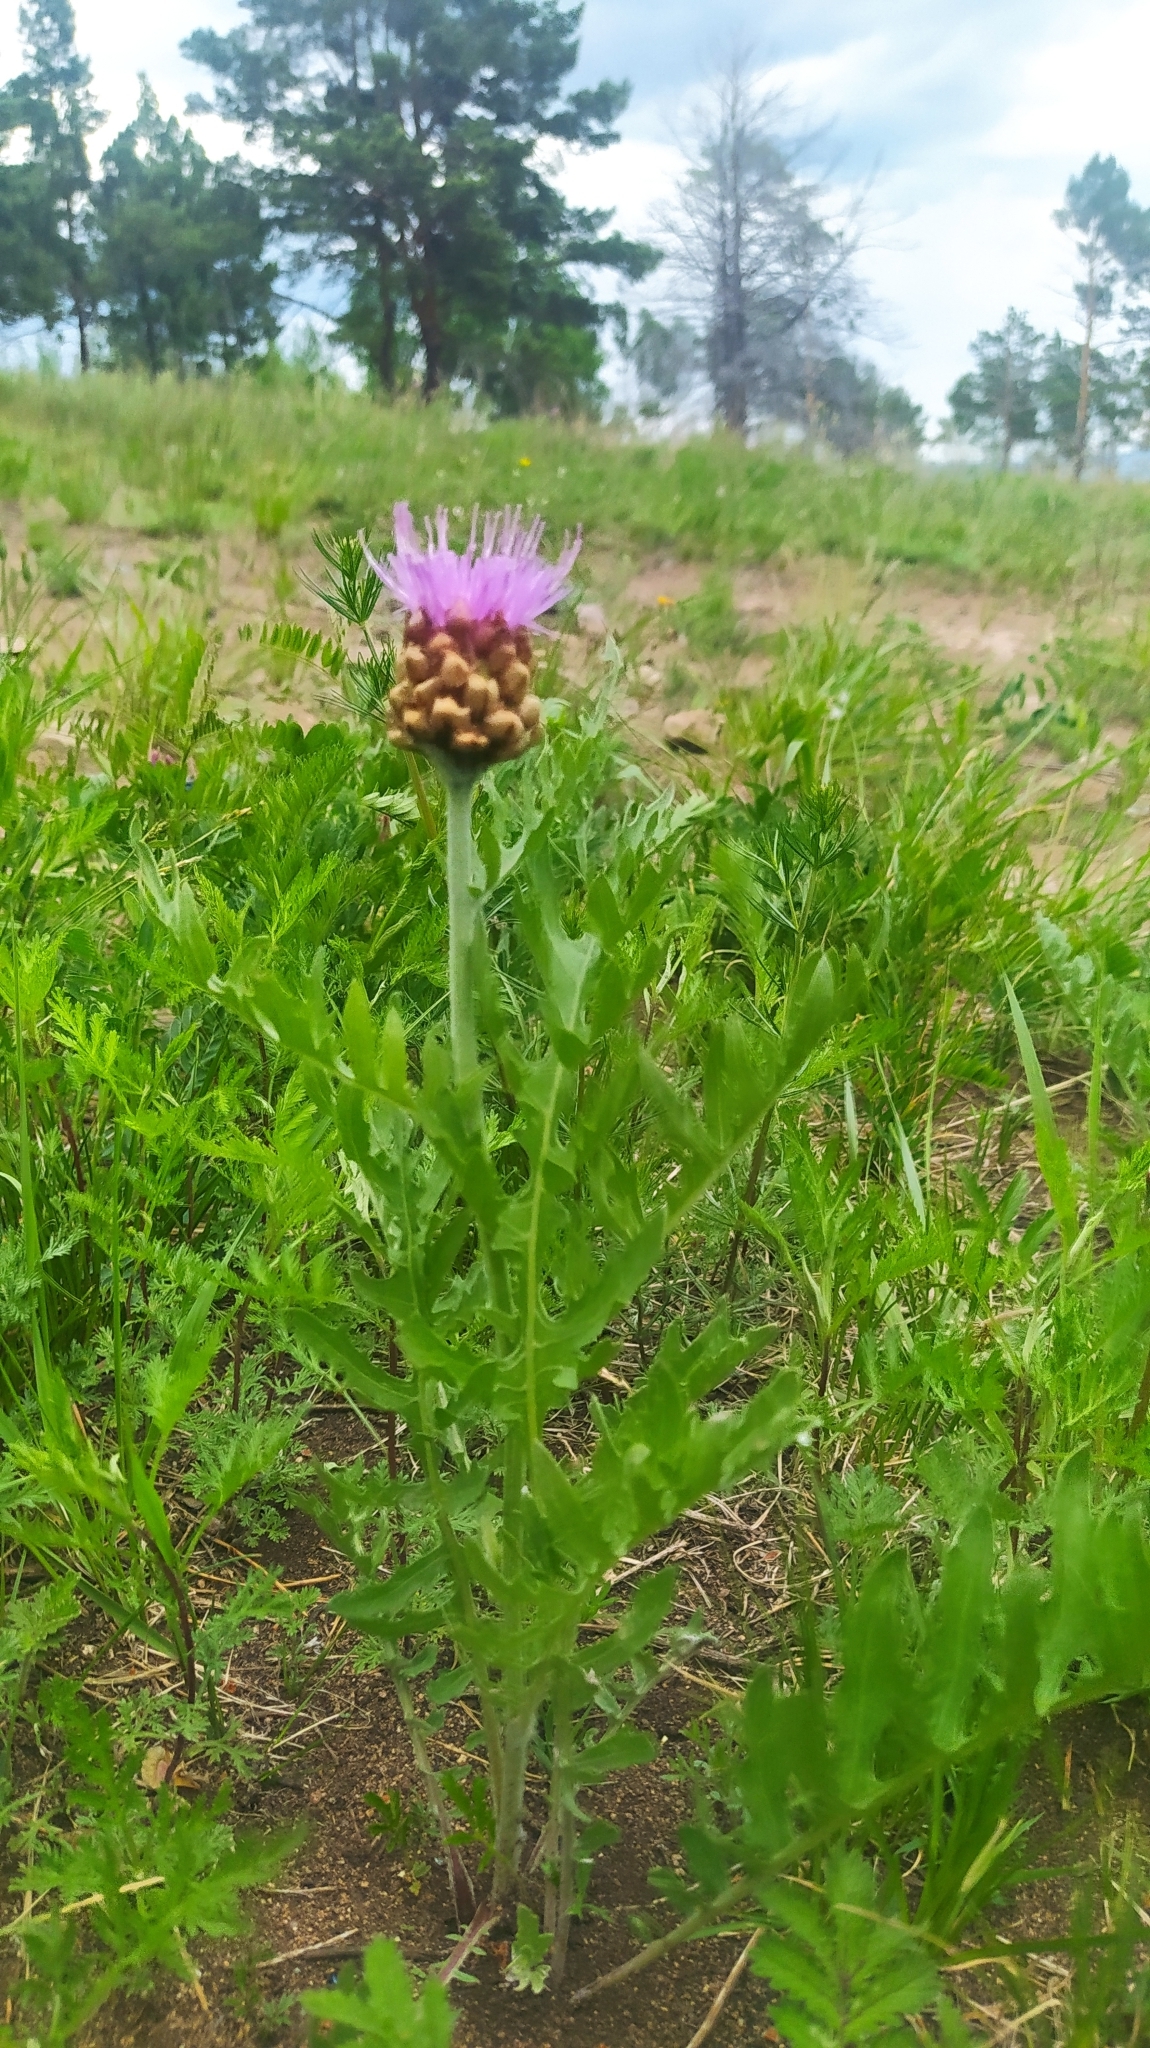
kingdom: Plantae
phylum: Tracheophyta
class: Magnoliopsida
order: Asterales
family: Asteraceae
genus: Leuzea
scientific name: Leuzea uniflora
